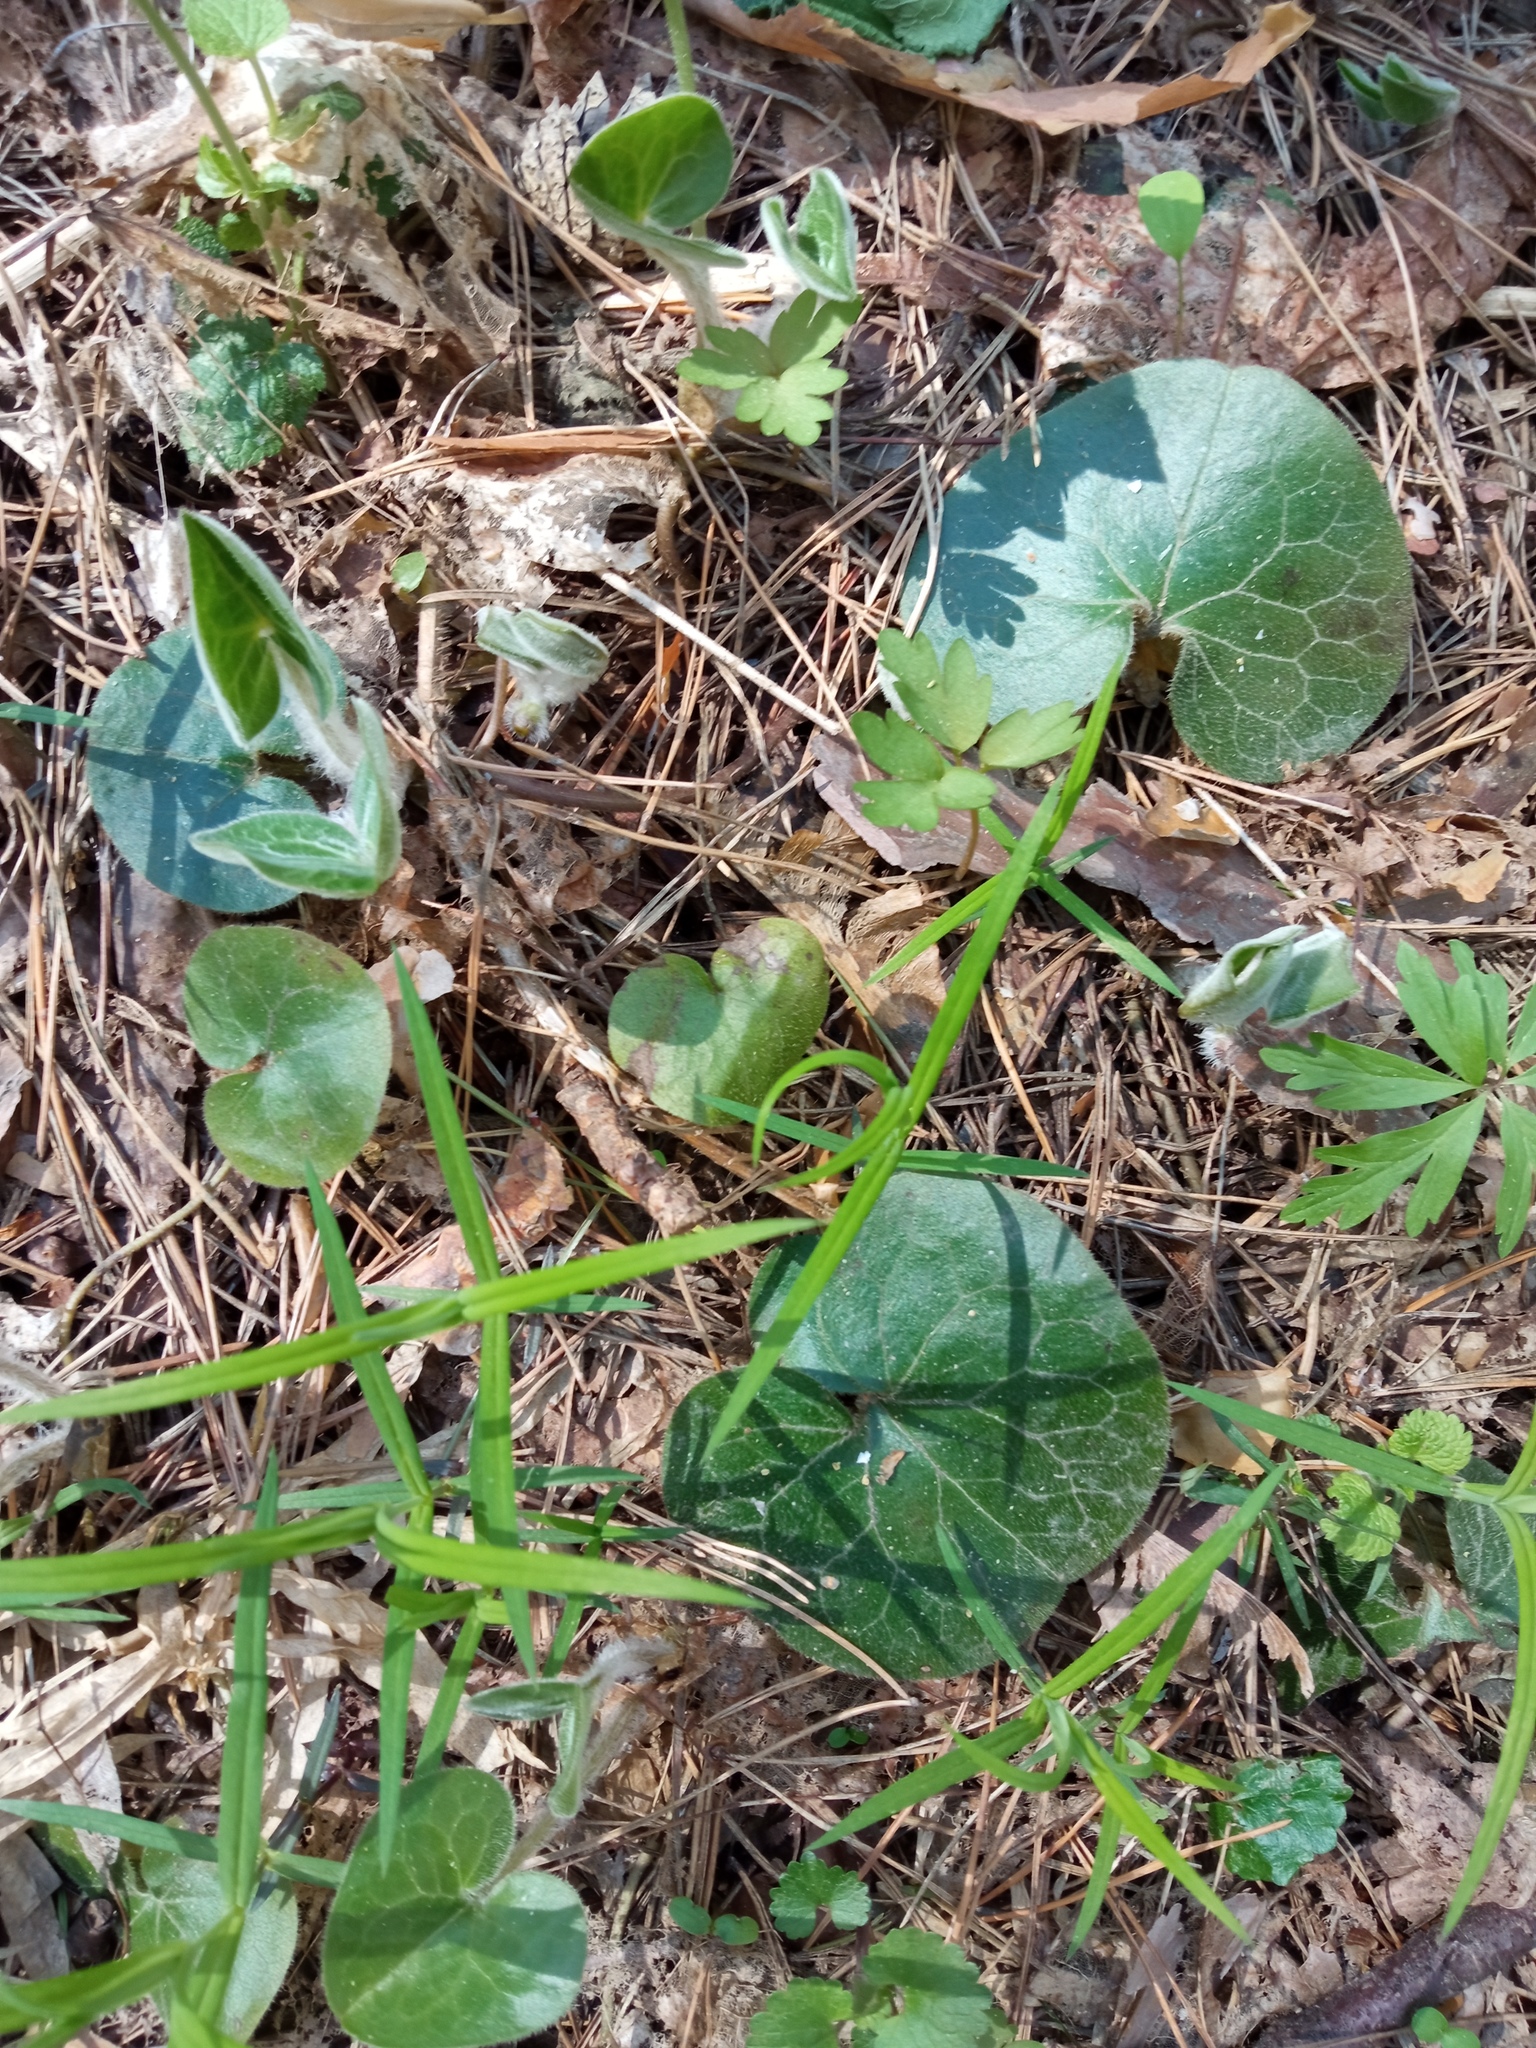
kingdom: Plantae
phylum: Tracheophyta
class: Magnoliopsida
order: Piperales
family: Aristolochiaceae
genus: Asarum
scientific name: Asarum europaeum
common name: Asarabacca
